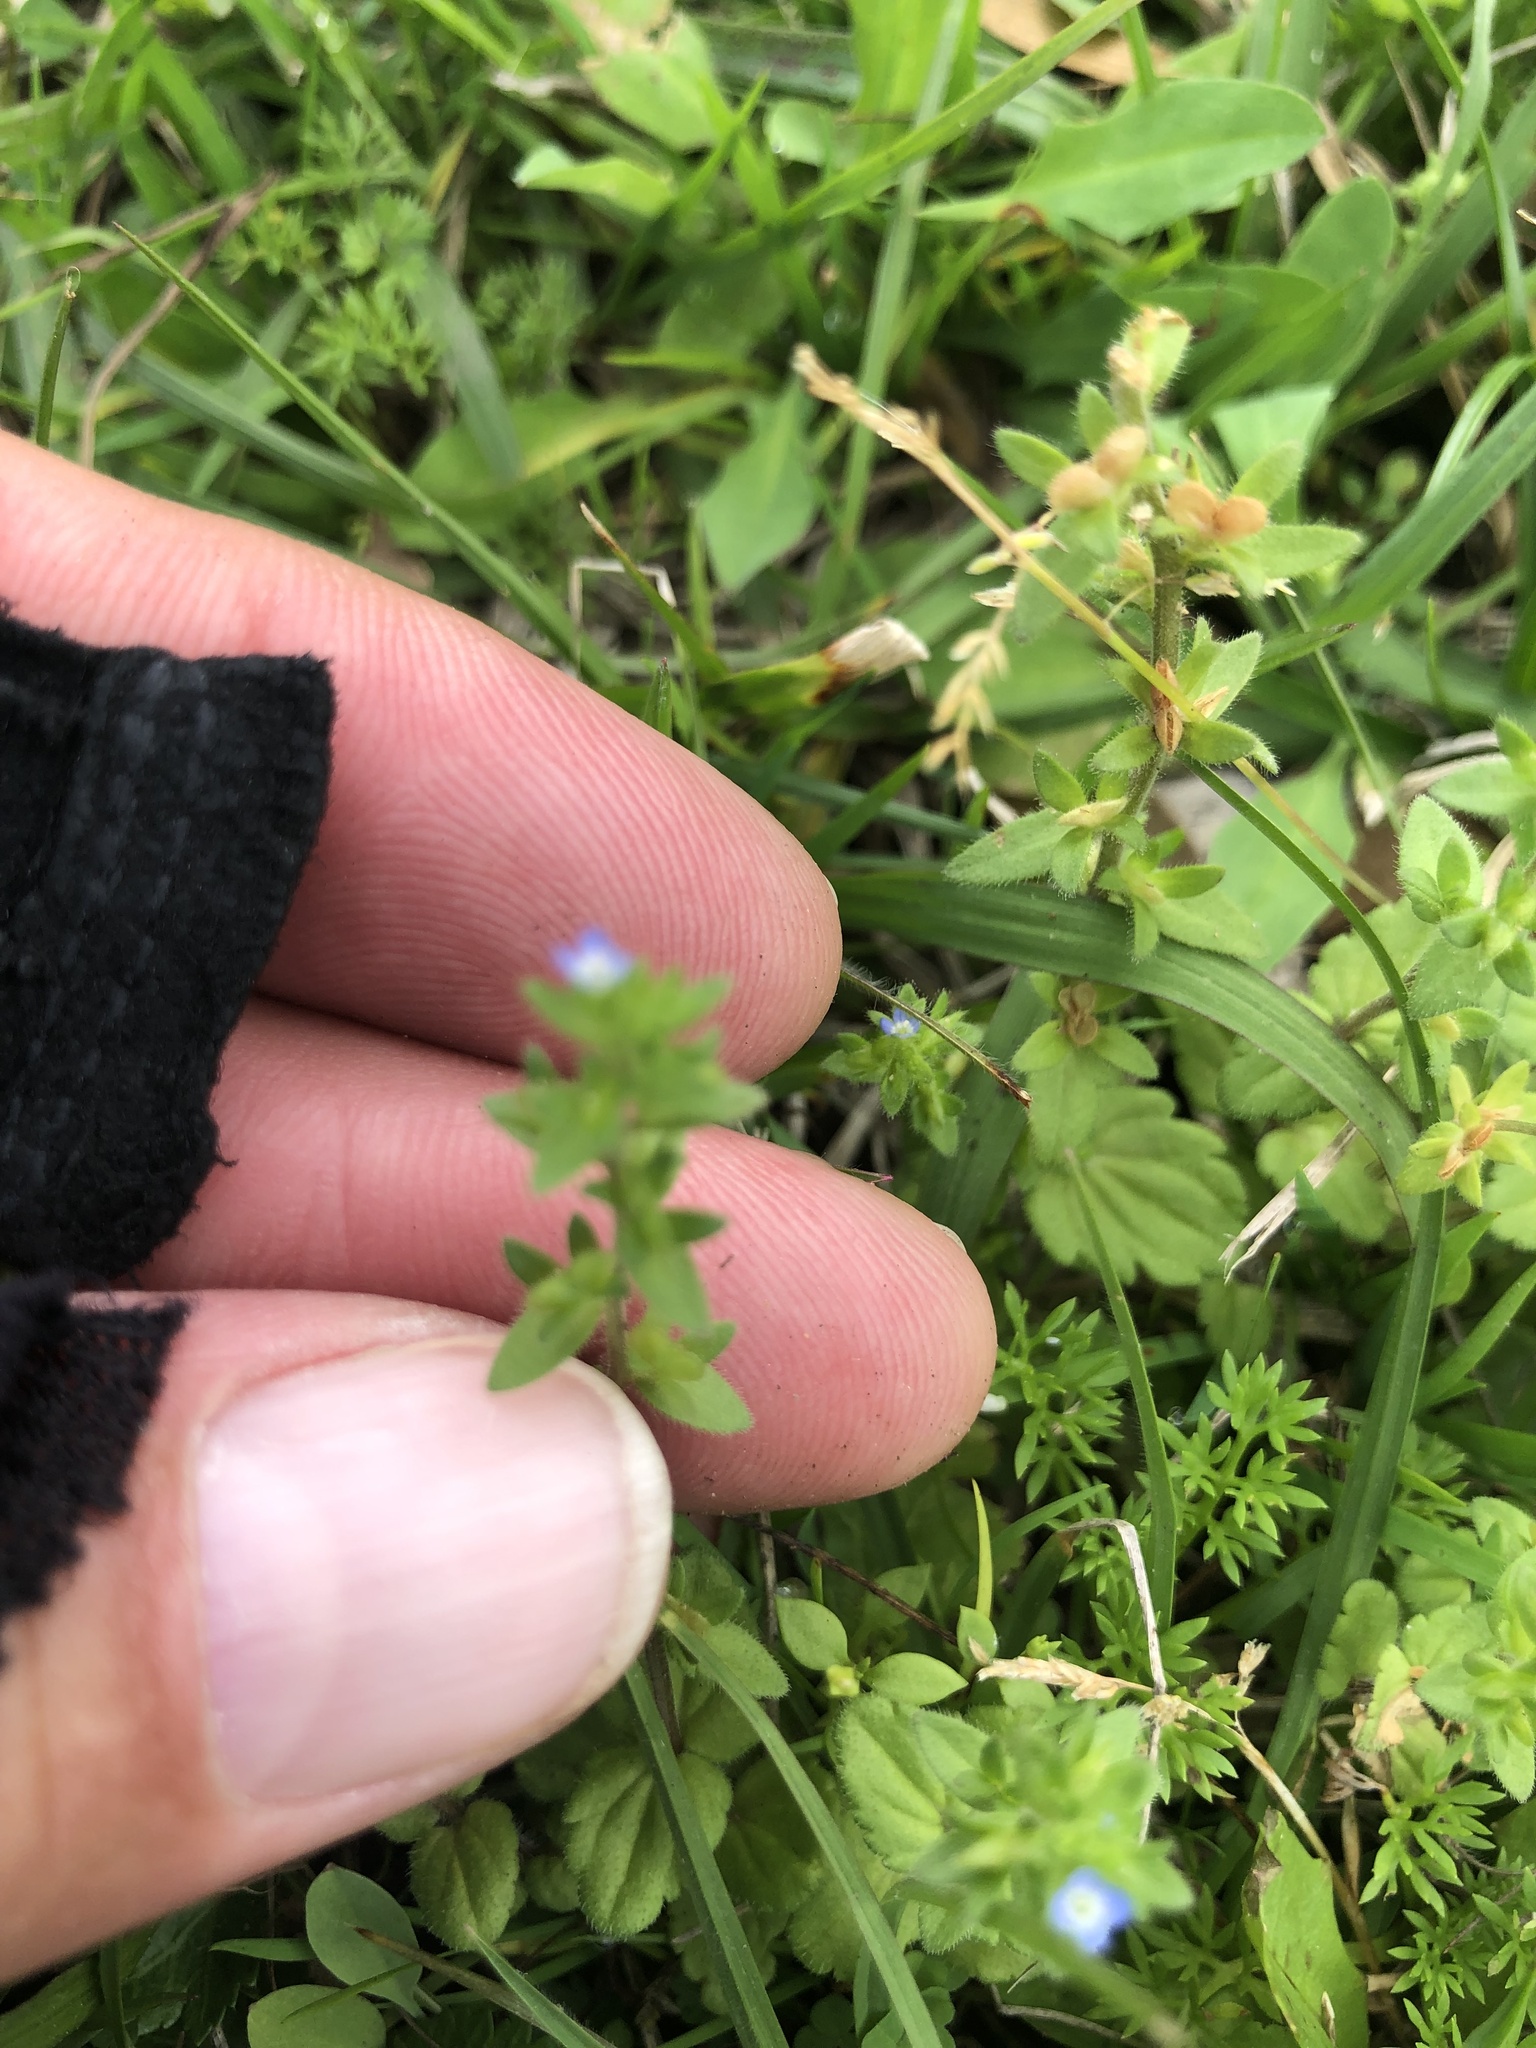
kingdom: Plantae
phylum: Tracheophyta
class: Magnoliopsida
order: Lamiales
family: Plantaginaceae
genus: Veronica
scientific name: Veronica arvensis
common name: Corn speedwell
